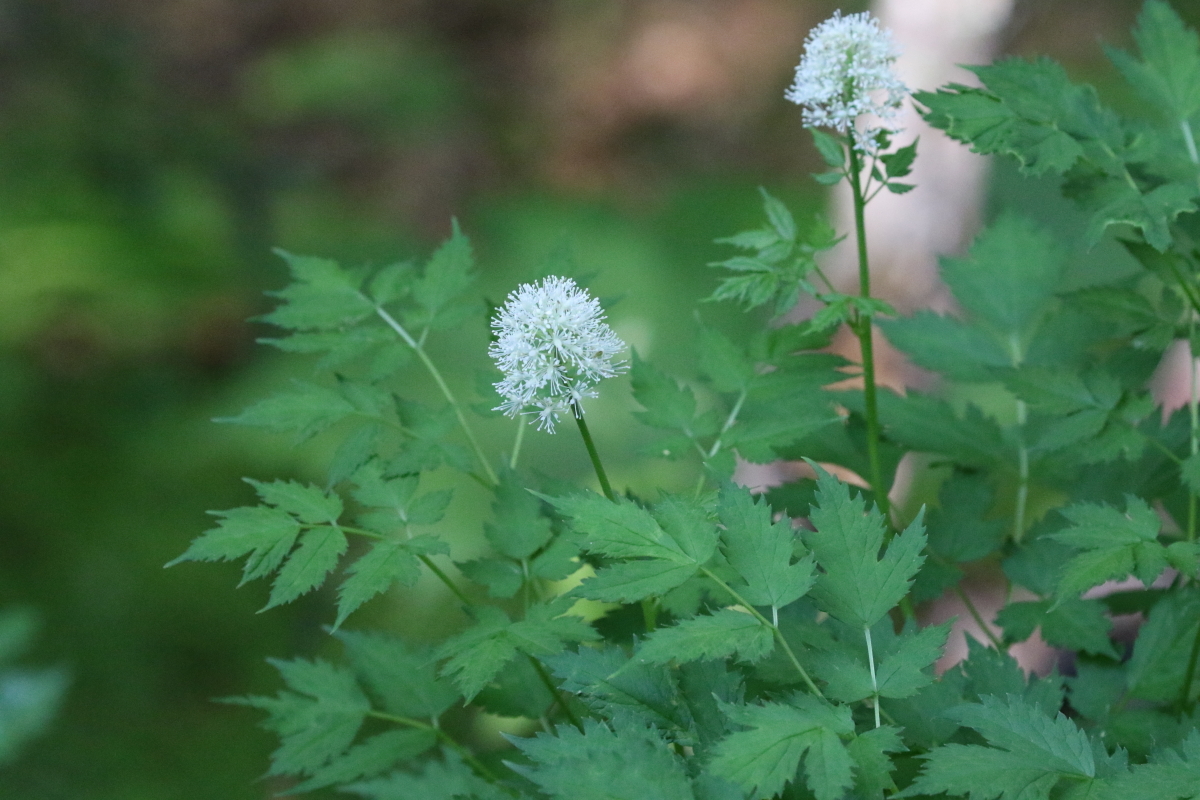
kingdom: Plantae
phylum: Tracheophyta
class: Magnoliopsida
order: Ranunculales
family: Ranunculaceae
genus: Actaea
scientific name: Actaea rubra
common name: Red baneberry
